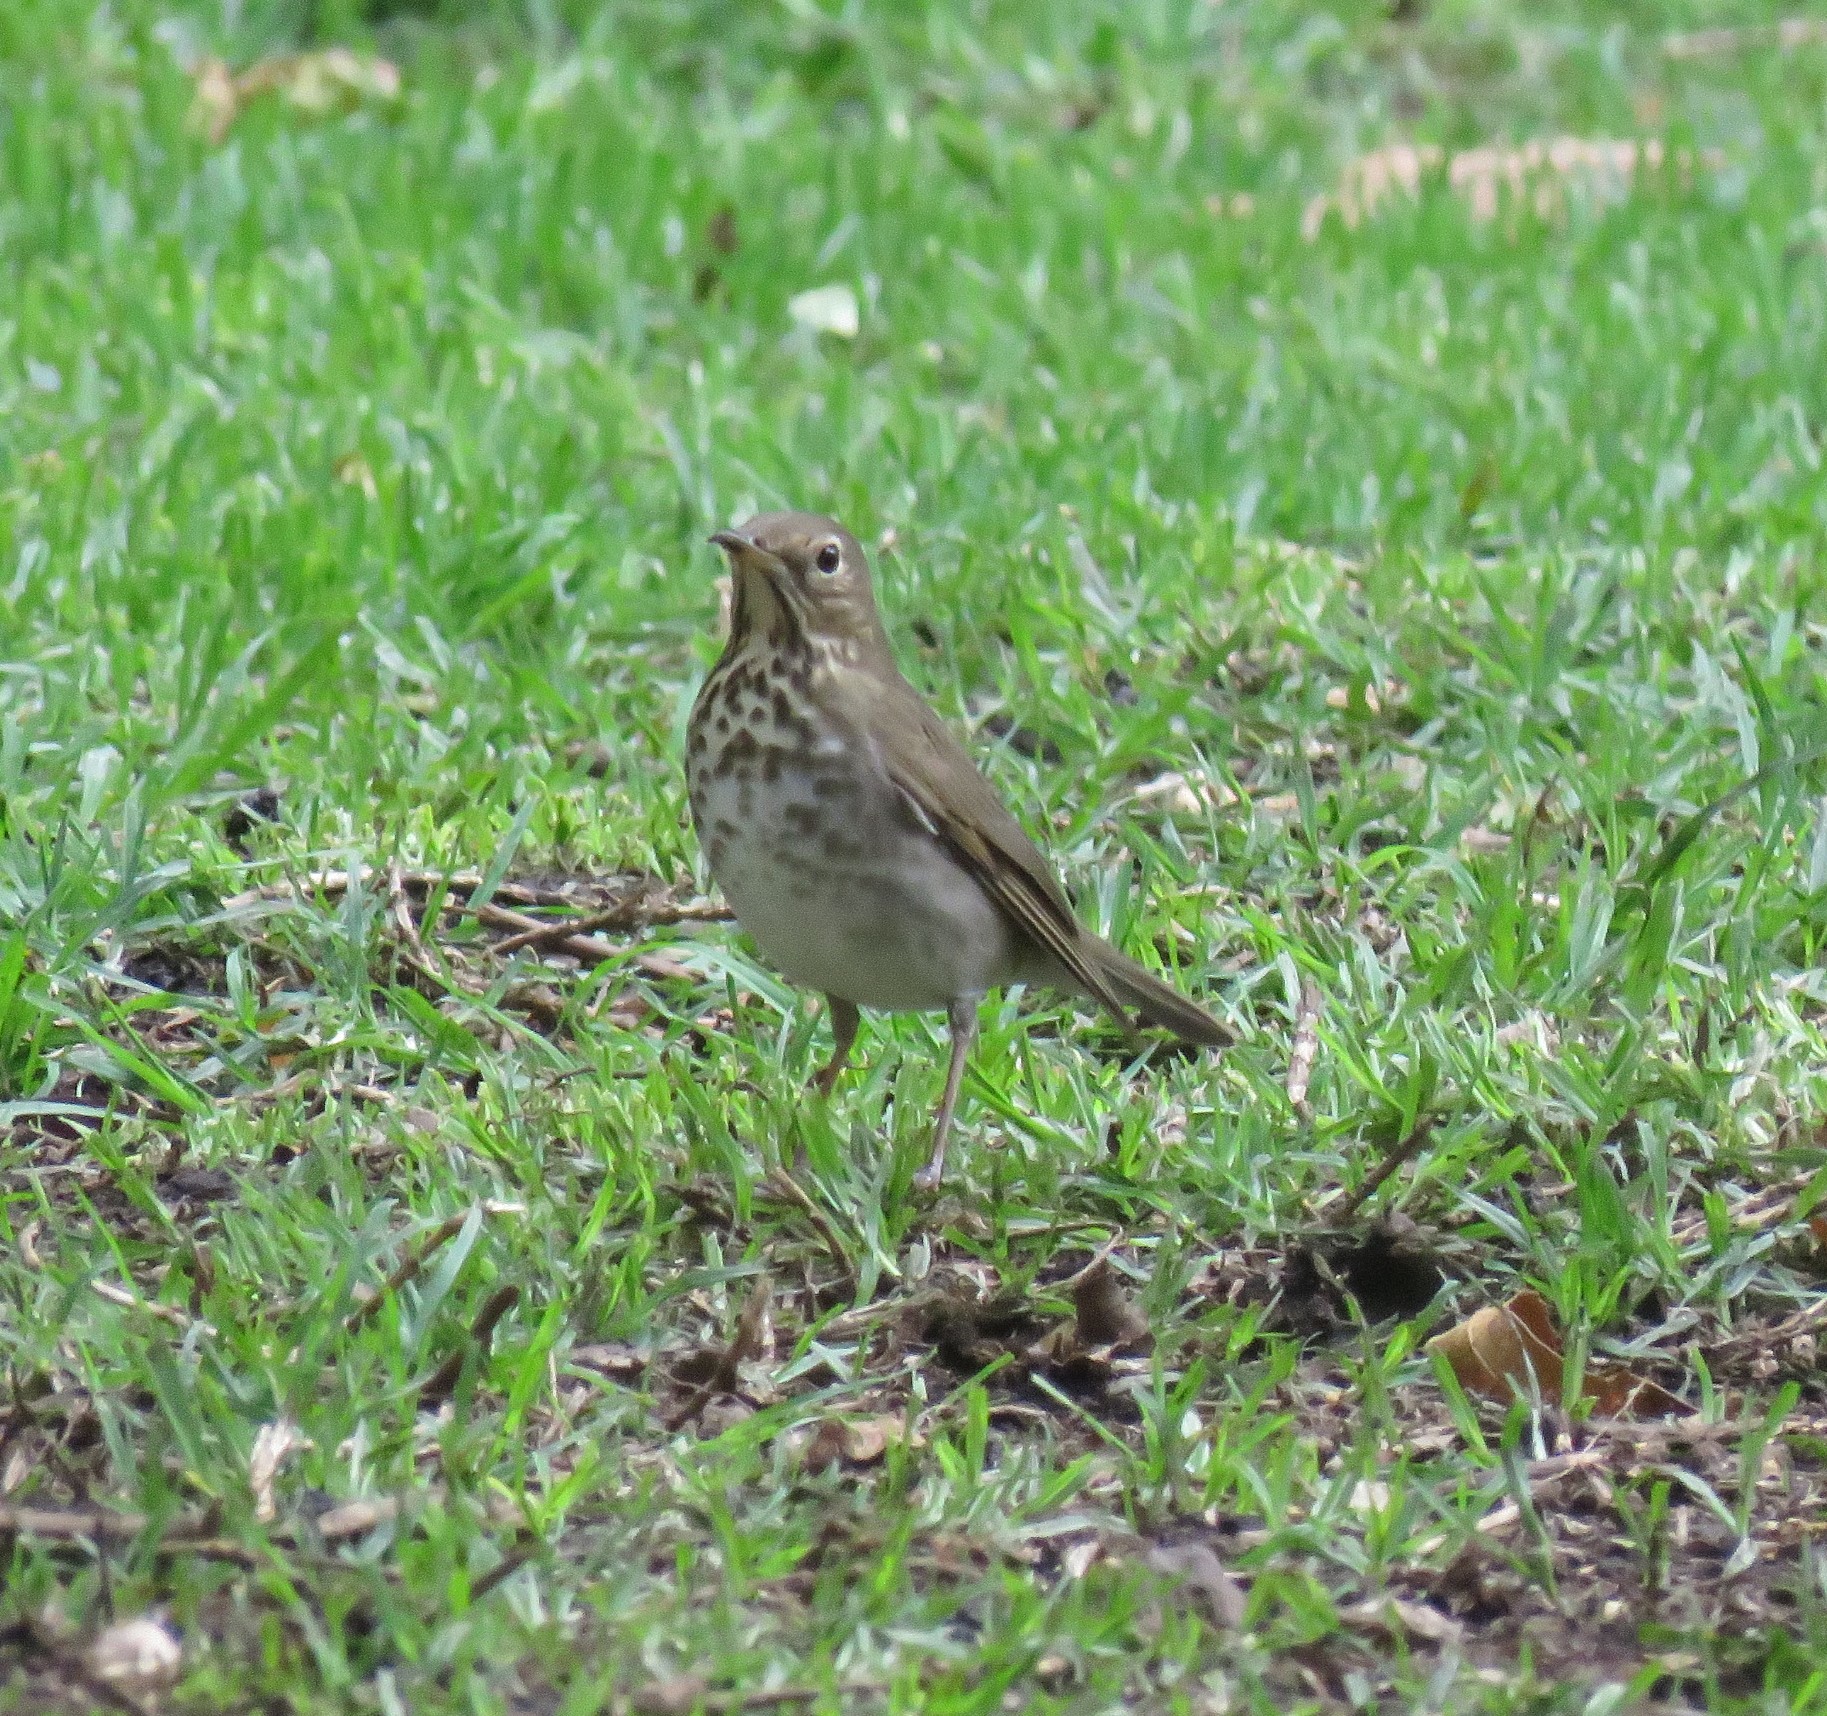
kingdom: Animalia
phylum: Chordata
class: Aves
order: Passeriformes
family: Turdidae
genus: Catharus
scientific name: Catharus minimus
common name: Grey-cheeked thrush
